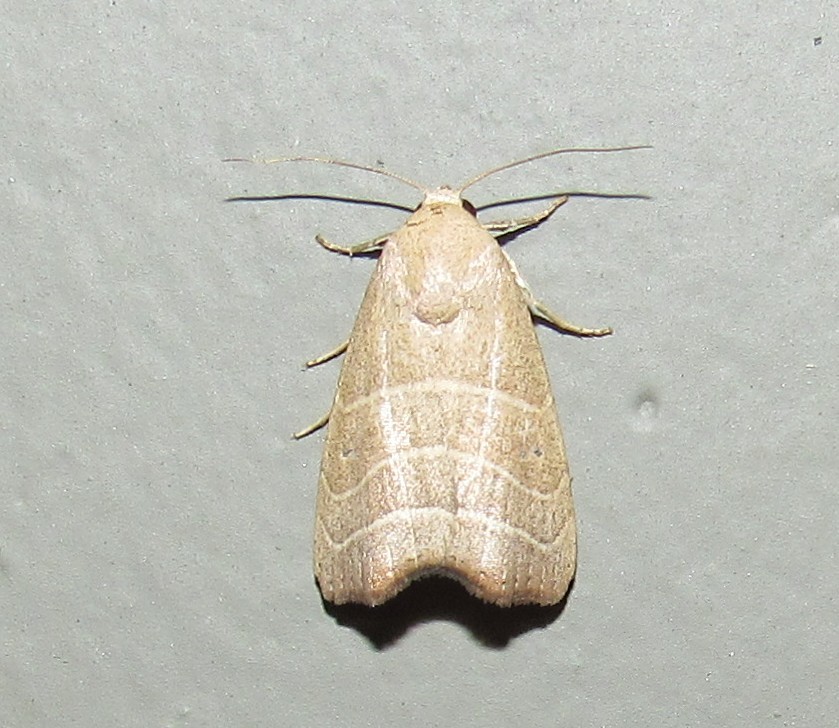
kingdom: Animalia
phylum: Arthropoda
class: Insecta
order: Lepidoptera
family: Noctuidae
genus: Bagisara
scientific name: Bagisara repanda
